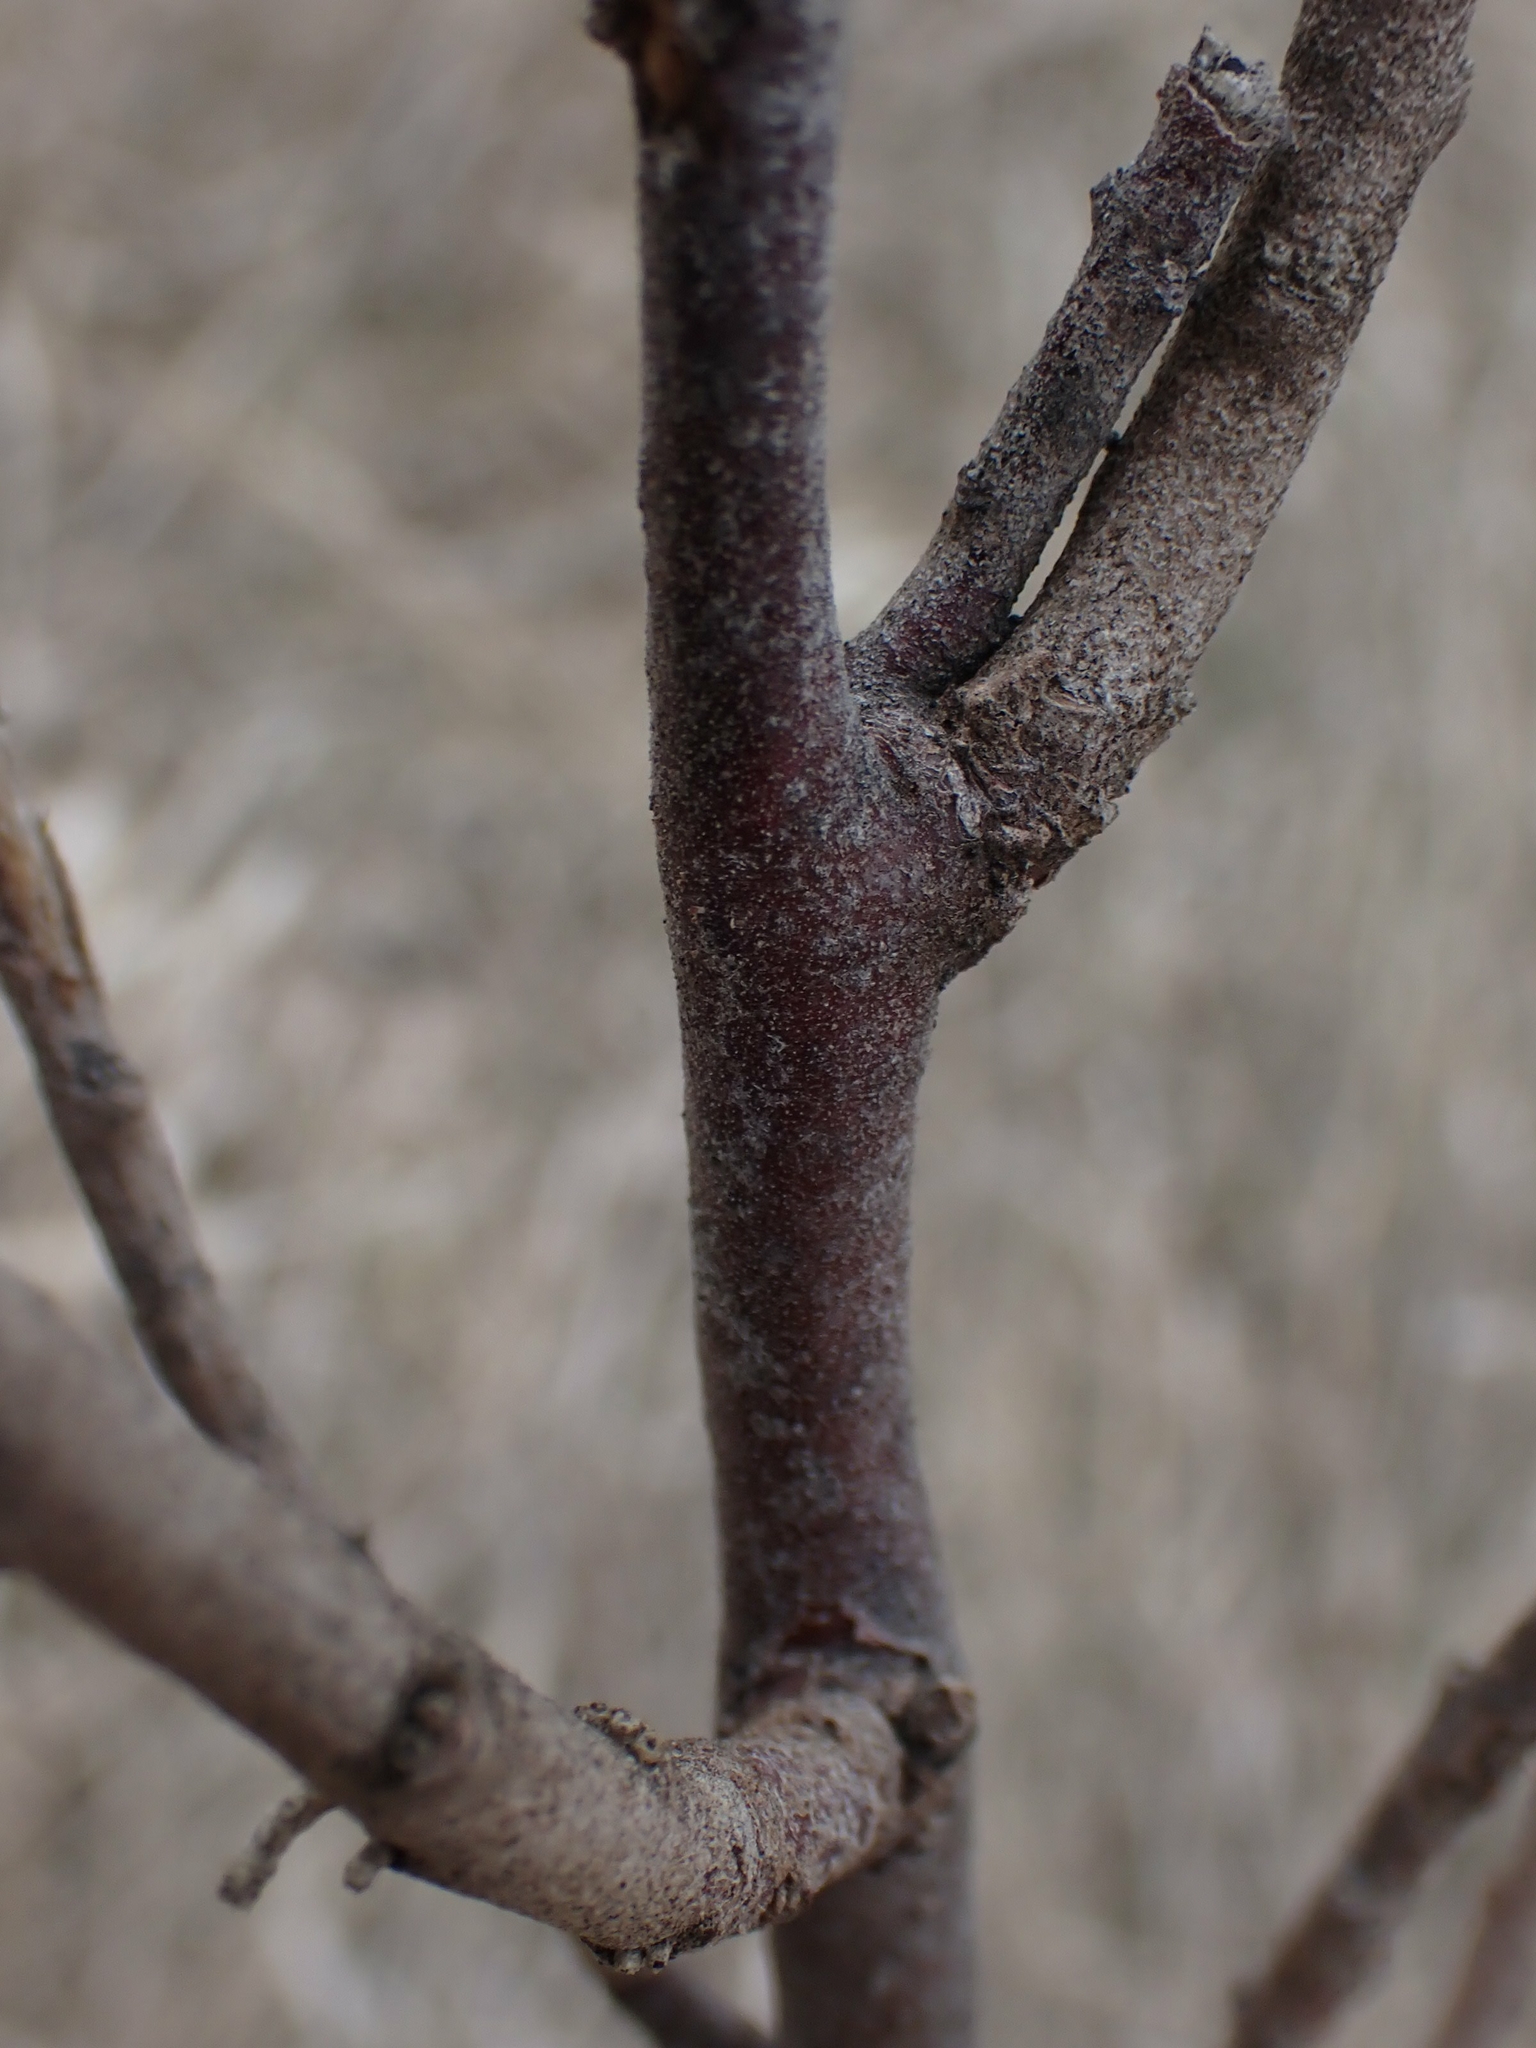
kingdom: Plantae
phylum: Tracheophyta
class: Magnoliopsida
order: Rosales
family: Elaeagnaceae
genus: Elaeagnus
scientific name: Elaeagnus commutata
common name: Silverberry
